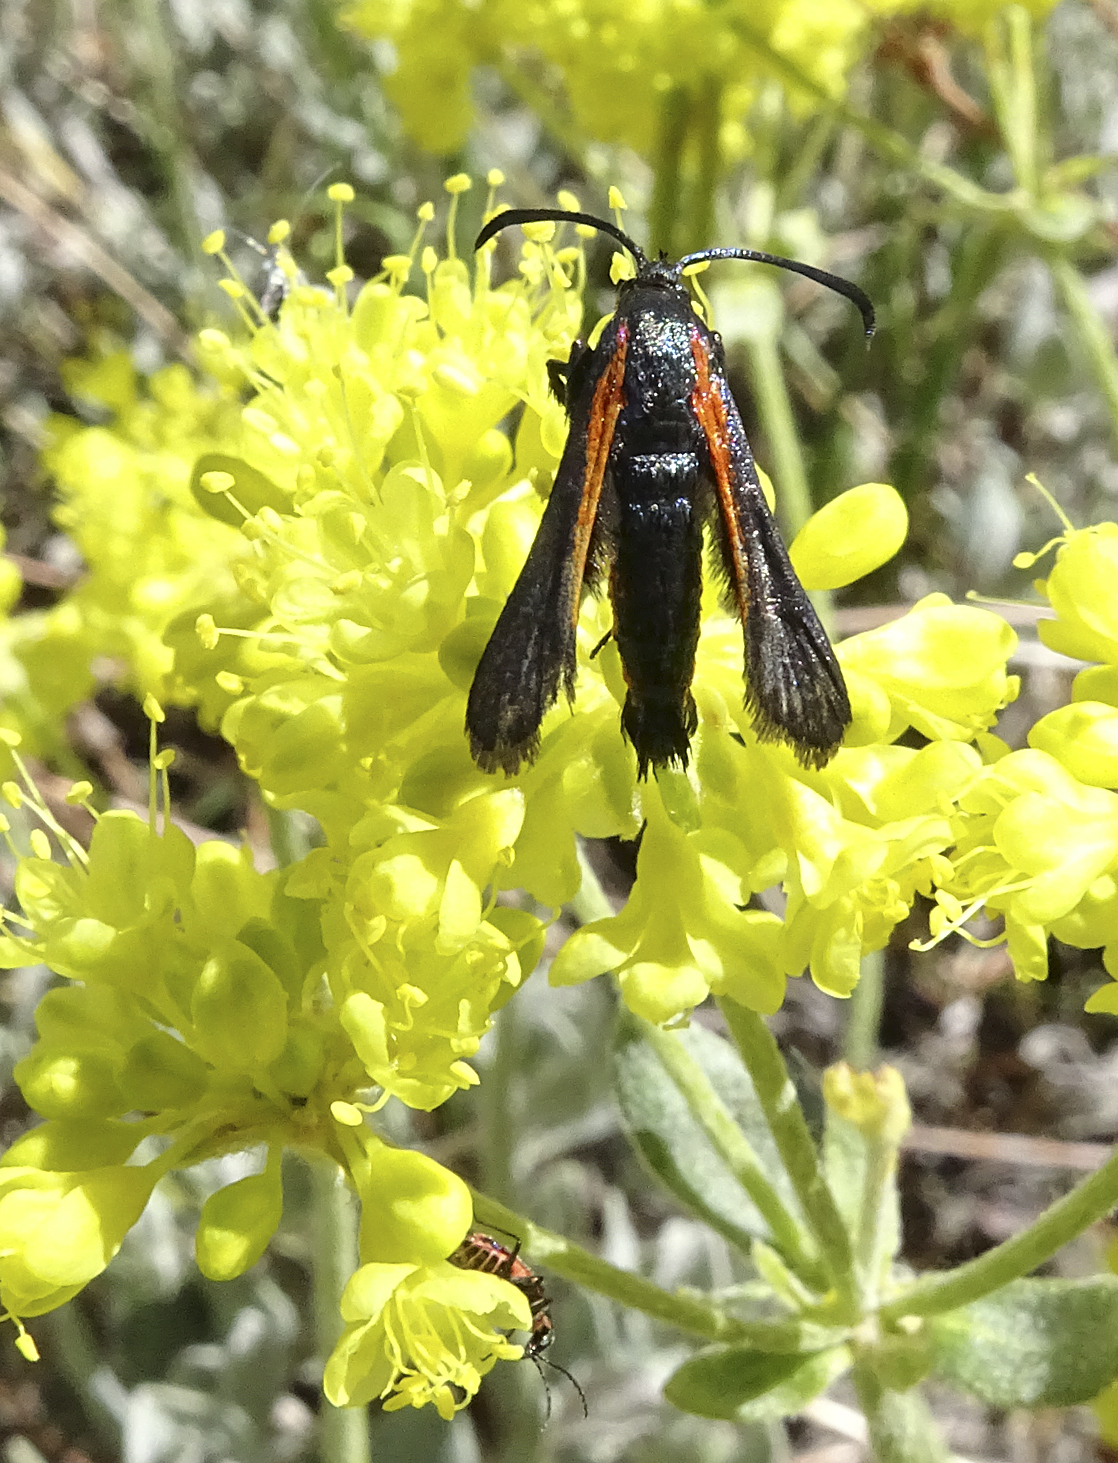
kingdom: Animalia
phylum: Arthropoda
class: Insecta
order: Lepidoptera
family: Sesiidae
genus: Synanthedon
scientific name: Synanthedon polygoni
